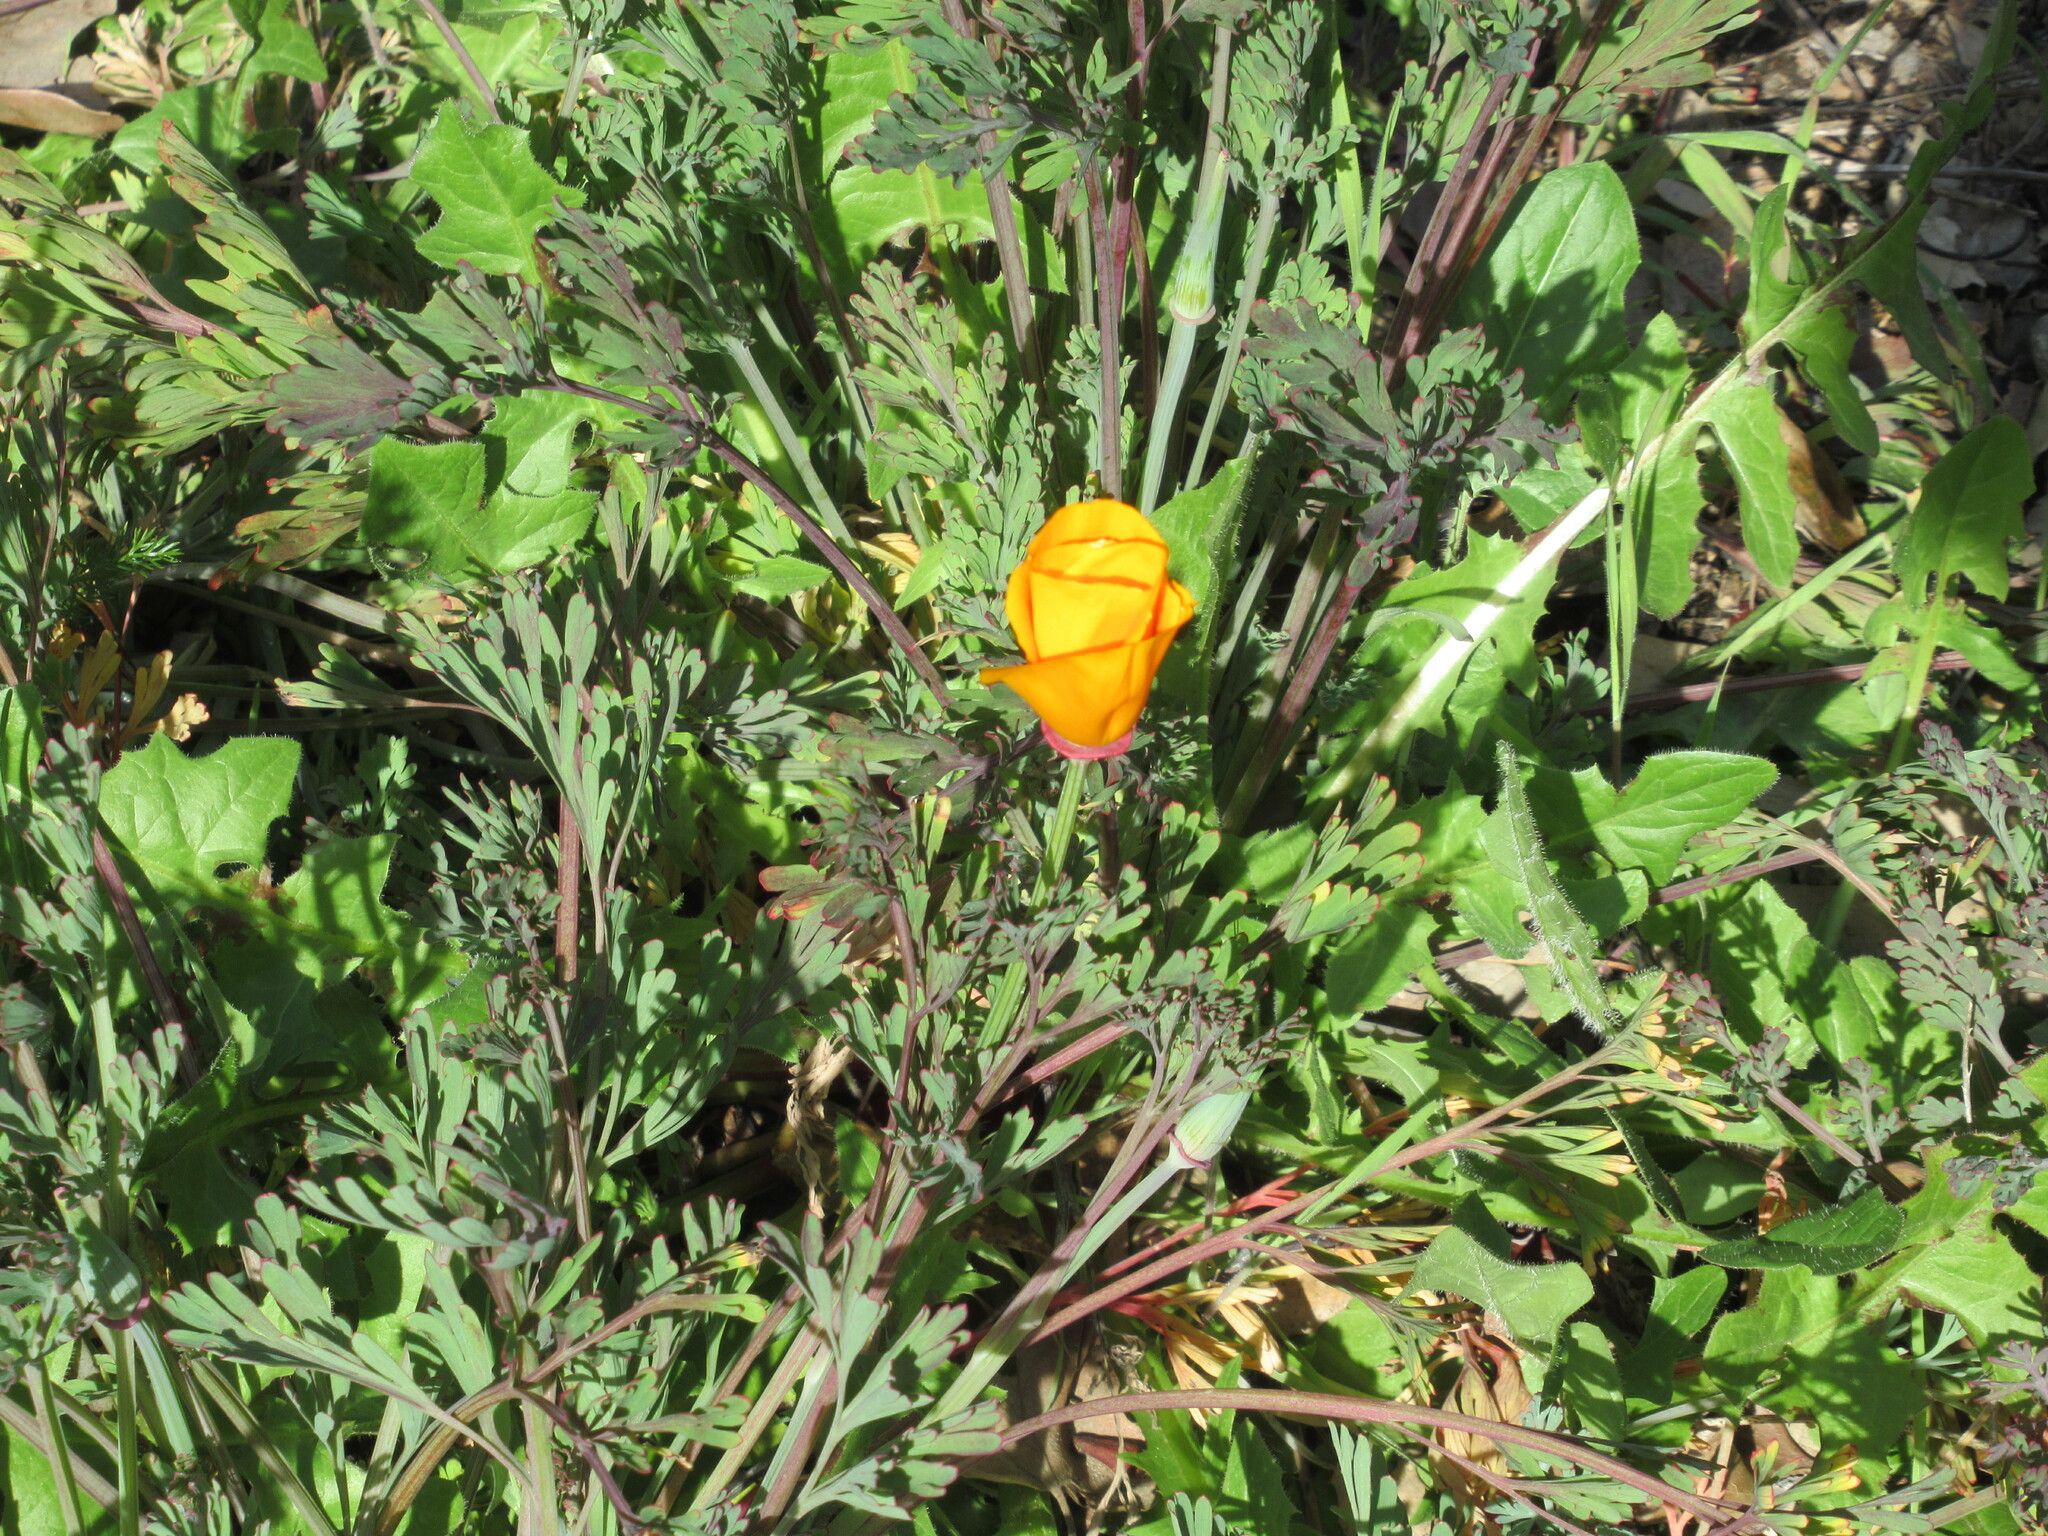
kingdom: Plantae
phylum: Tracheophyta
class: Magnoliopsida
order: Ranunculales
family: Papaveraceae
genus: Eschscholzia
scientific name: Eschscholzia californica
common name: California poppy
